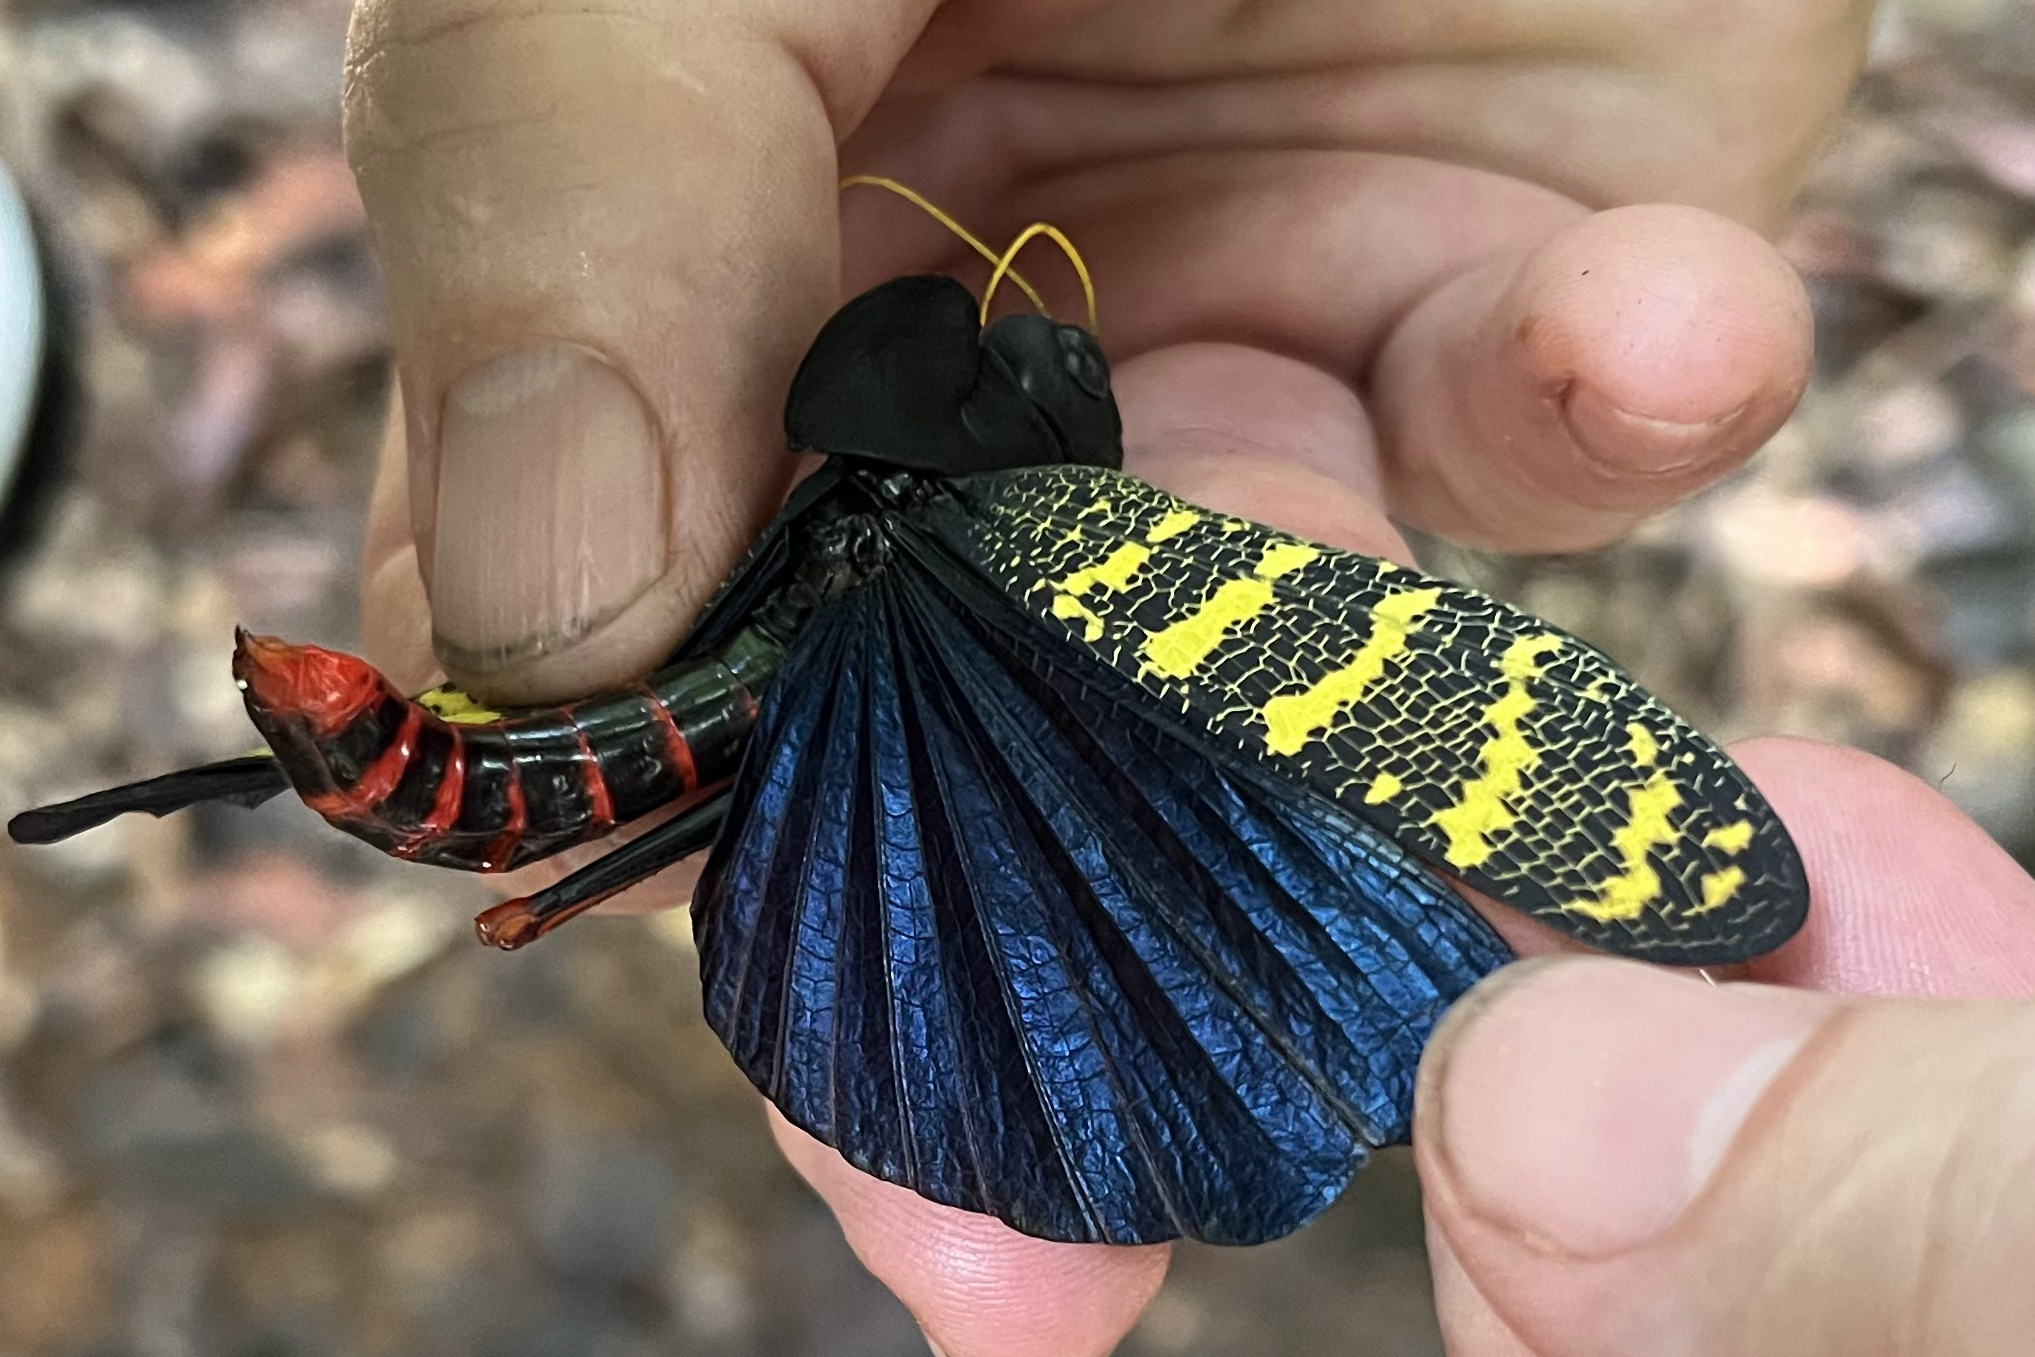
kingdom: Animalia
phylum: Arthropoda
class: Insecta
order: Orthoptera
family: Acrididae
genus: Monachidium
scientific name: Monachidium lunum
